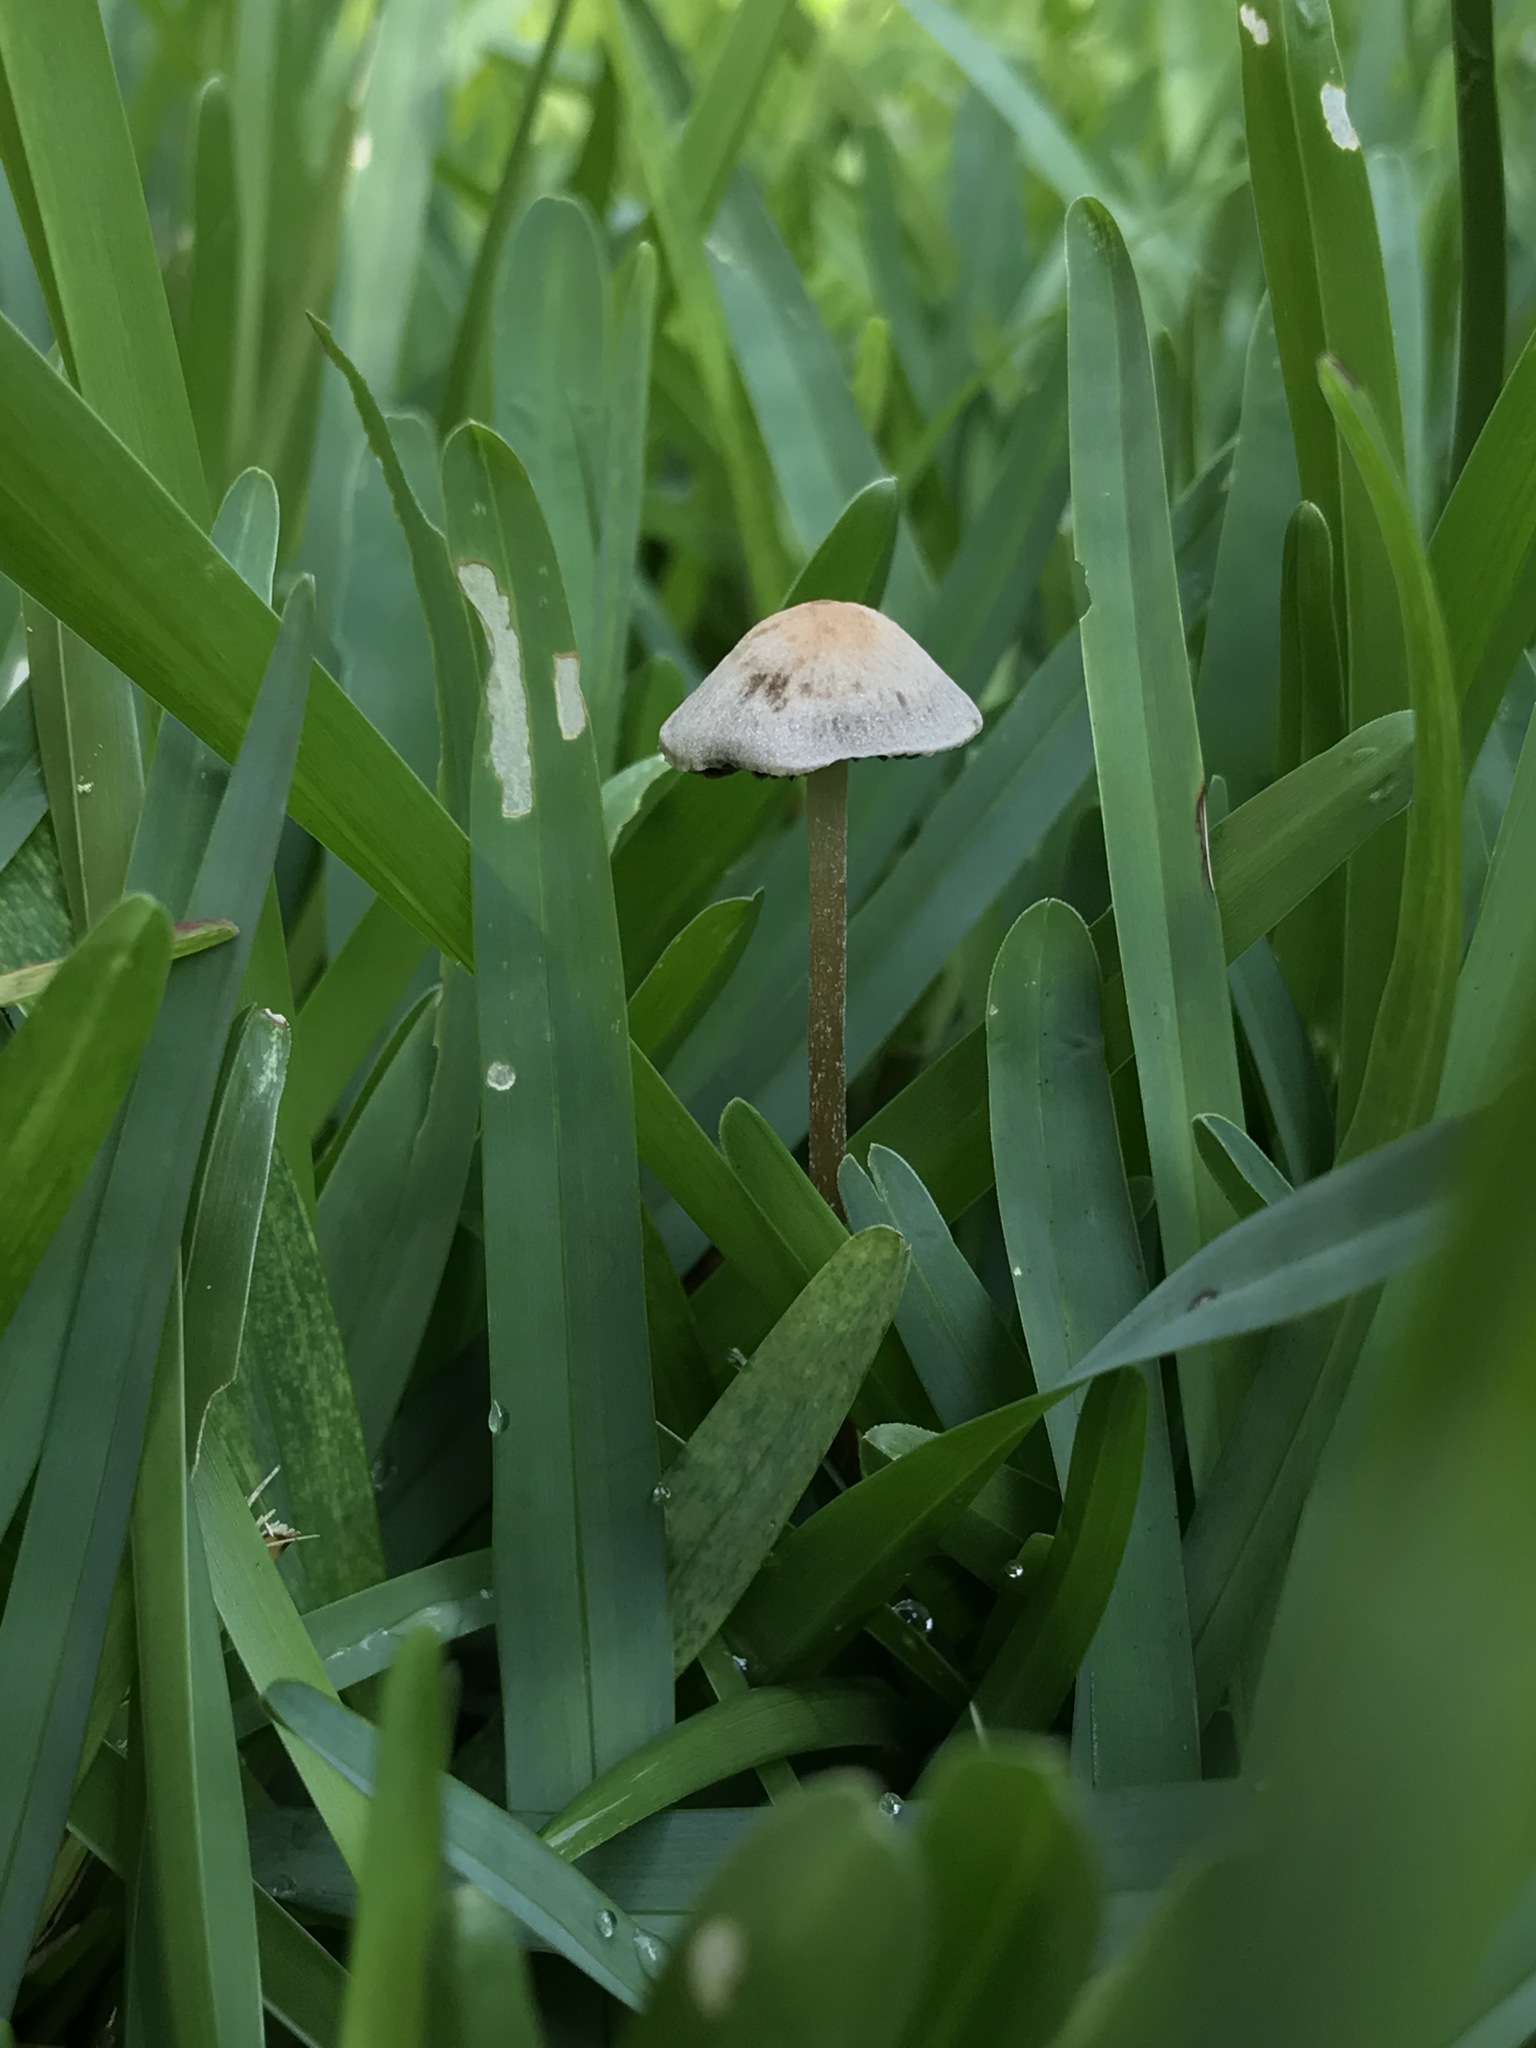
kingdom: Fungi
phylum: Basidiomycota
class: Agaricomycetes
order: Agaricales
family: Bolbitiaceae
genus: Panaeolus
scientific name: Panaeolus cinctulus
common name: Banded mottlegill
